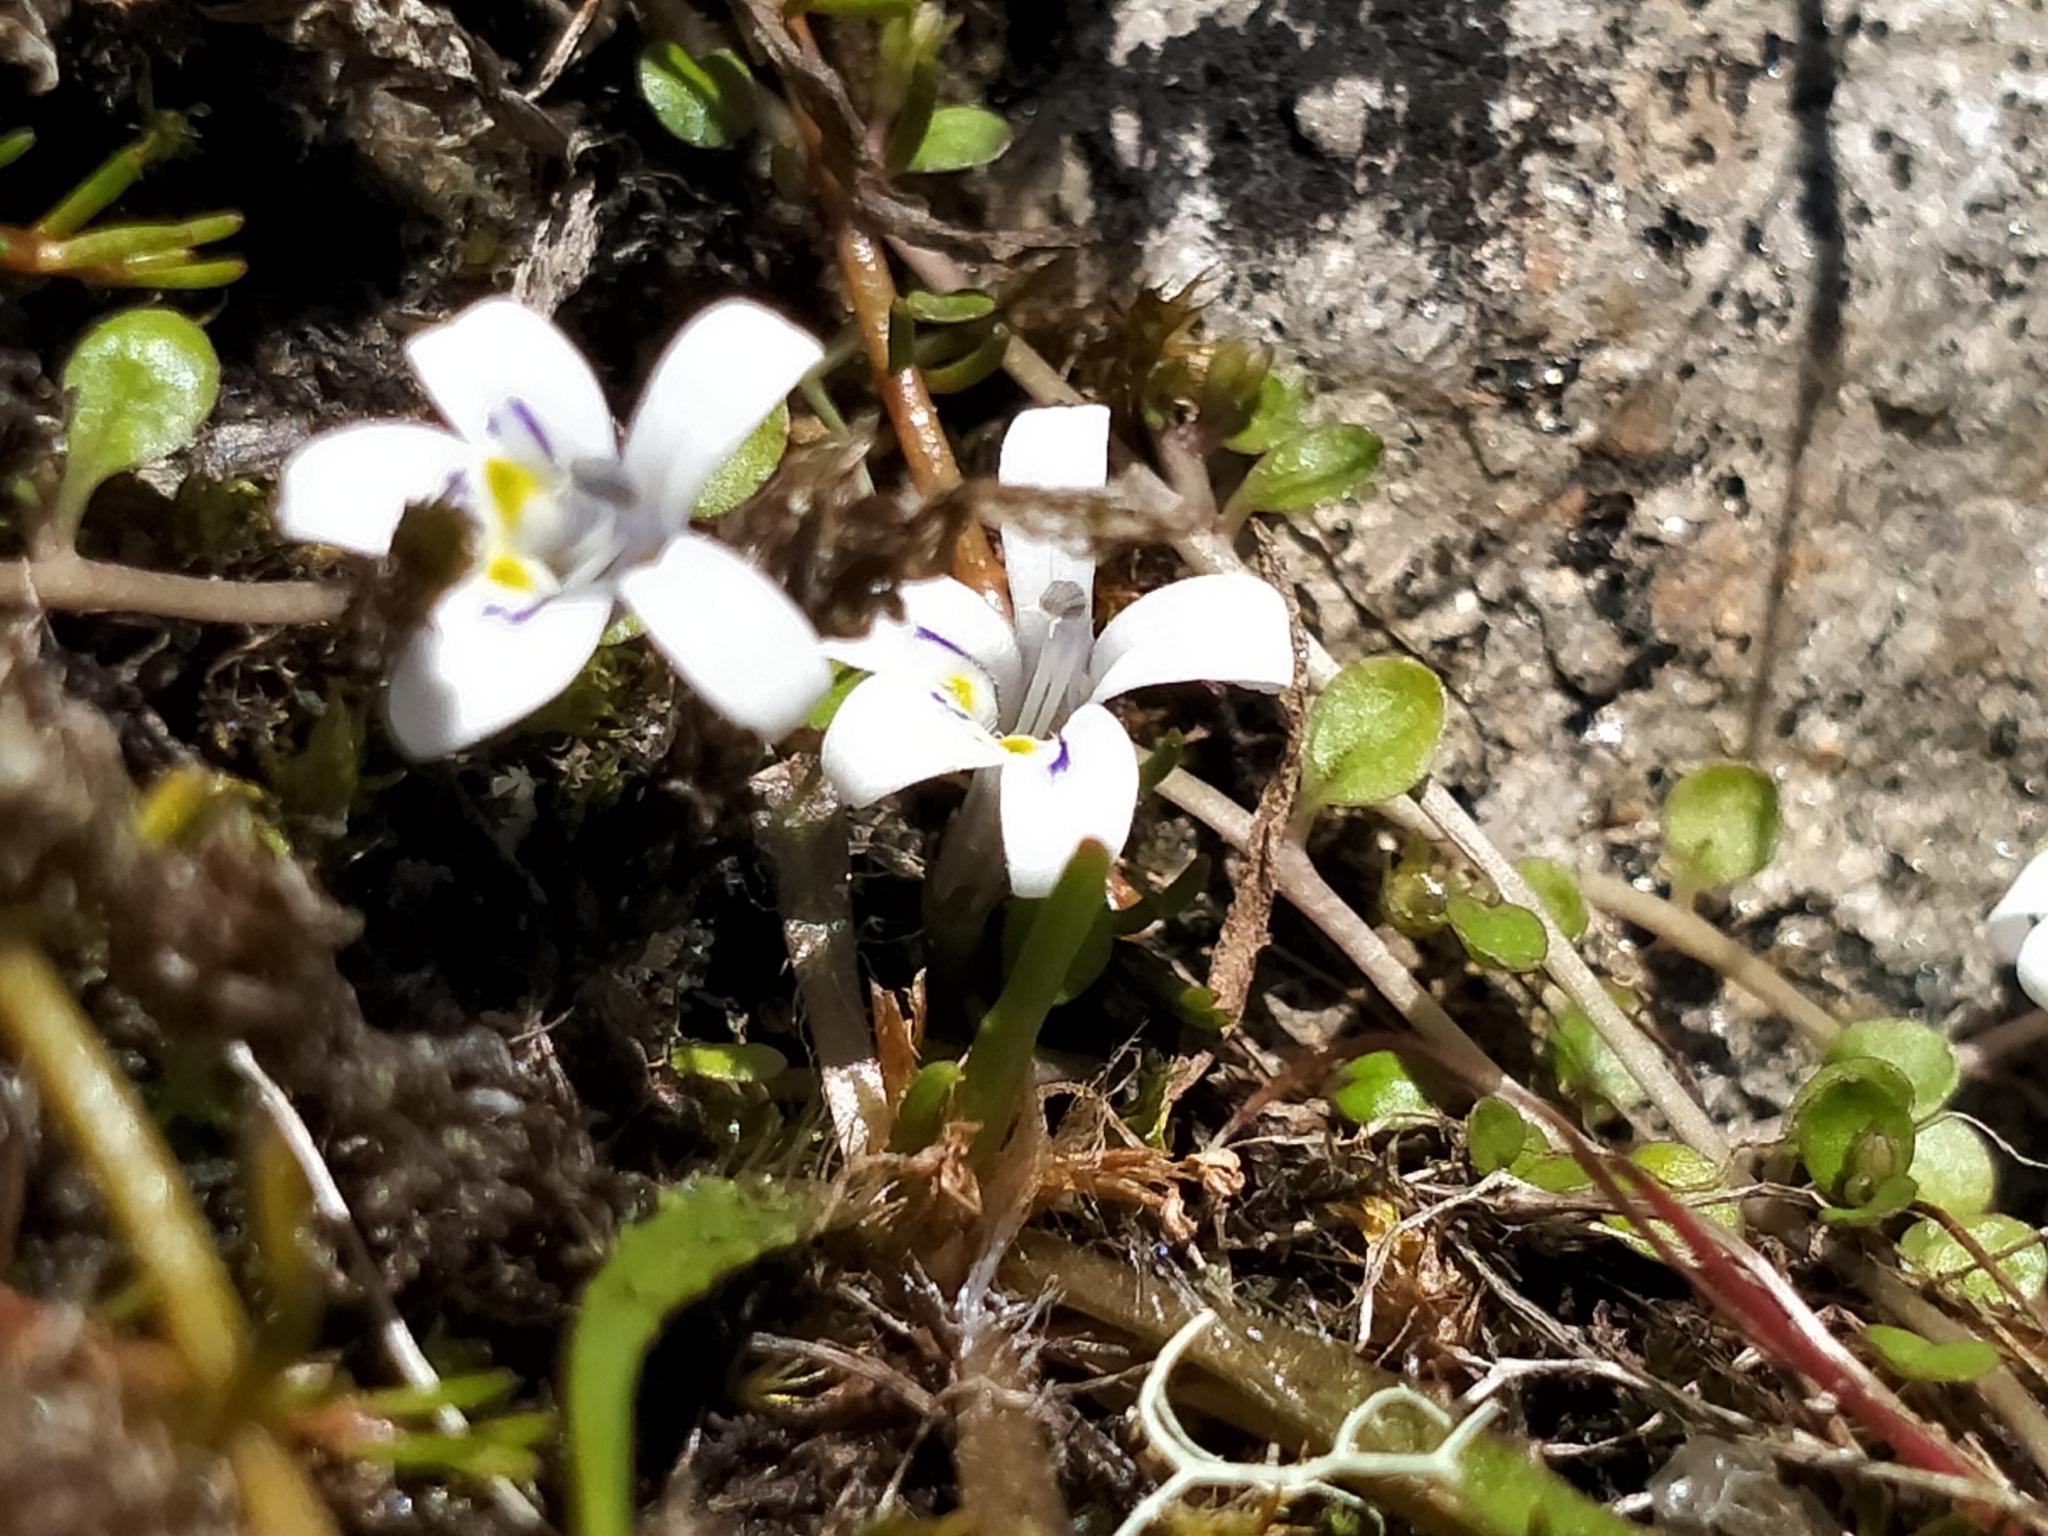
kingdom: Plantae
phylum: Tracheophyta
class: Magnoliopsida
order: Asterales
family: Campanulaceae
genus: Isotoma
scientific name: Isotoma rivalis
